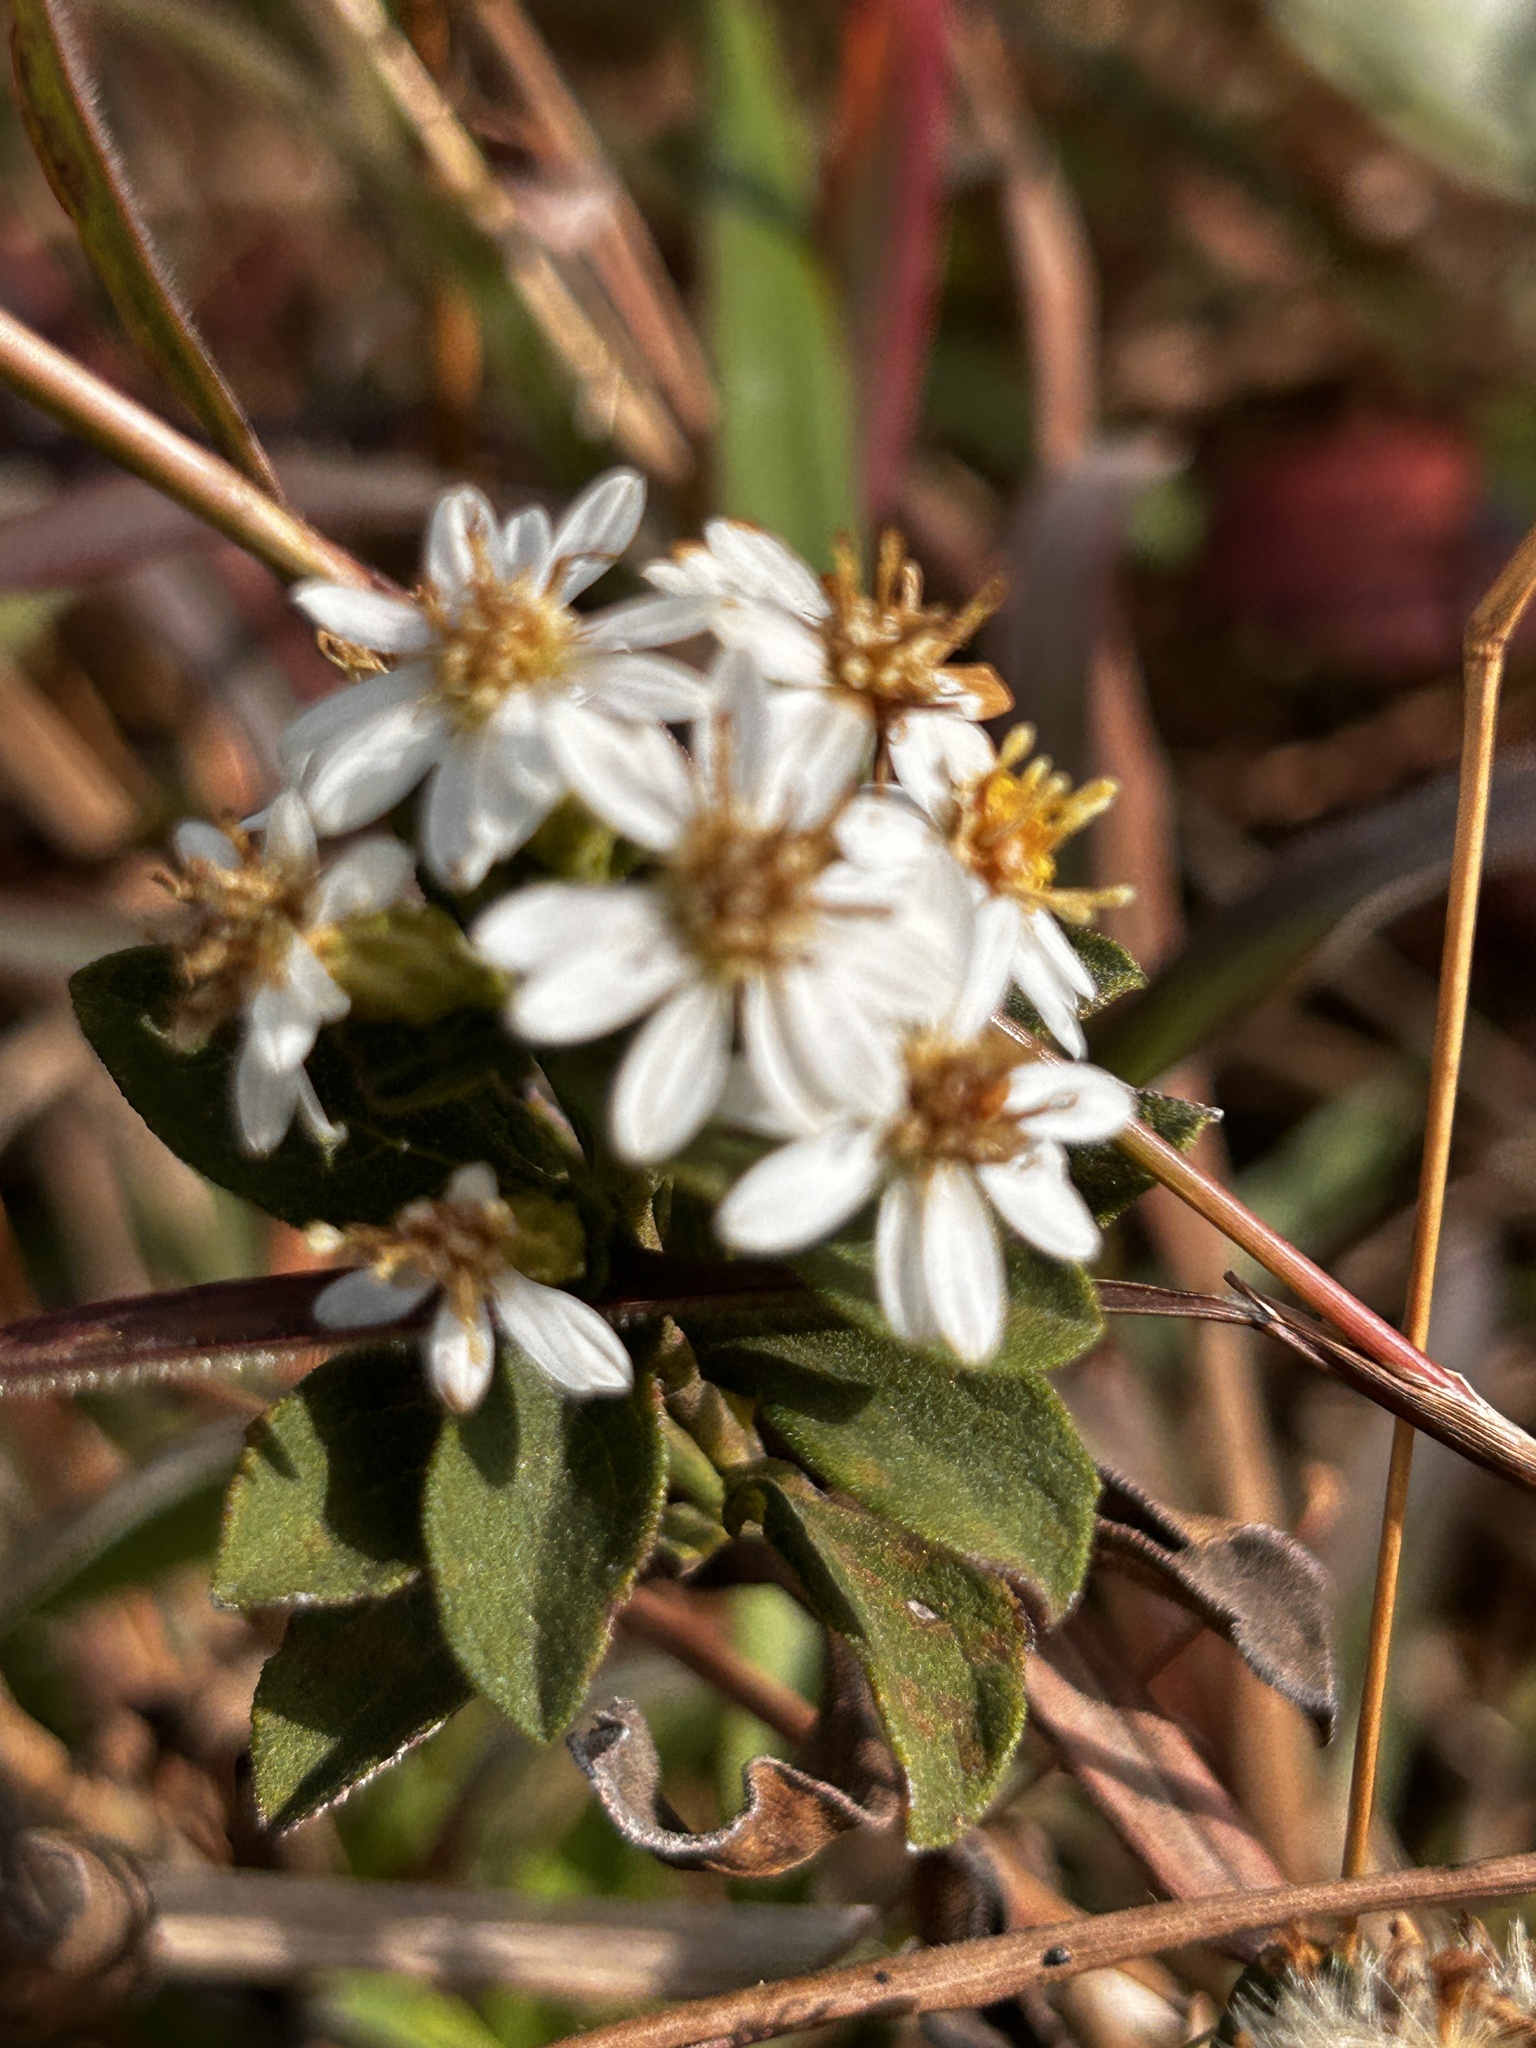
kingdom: Plantae
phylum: Tracheophyta
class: Magnoliopsida
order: Asterales
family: Asteraceae
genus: Aster
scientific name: Aster baccharoides
